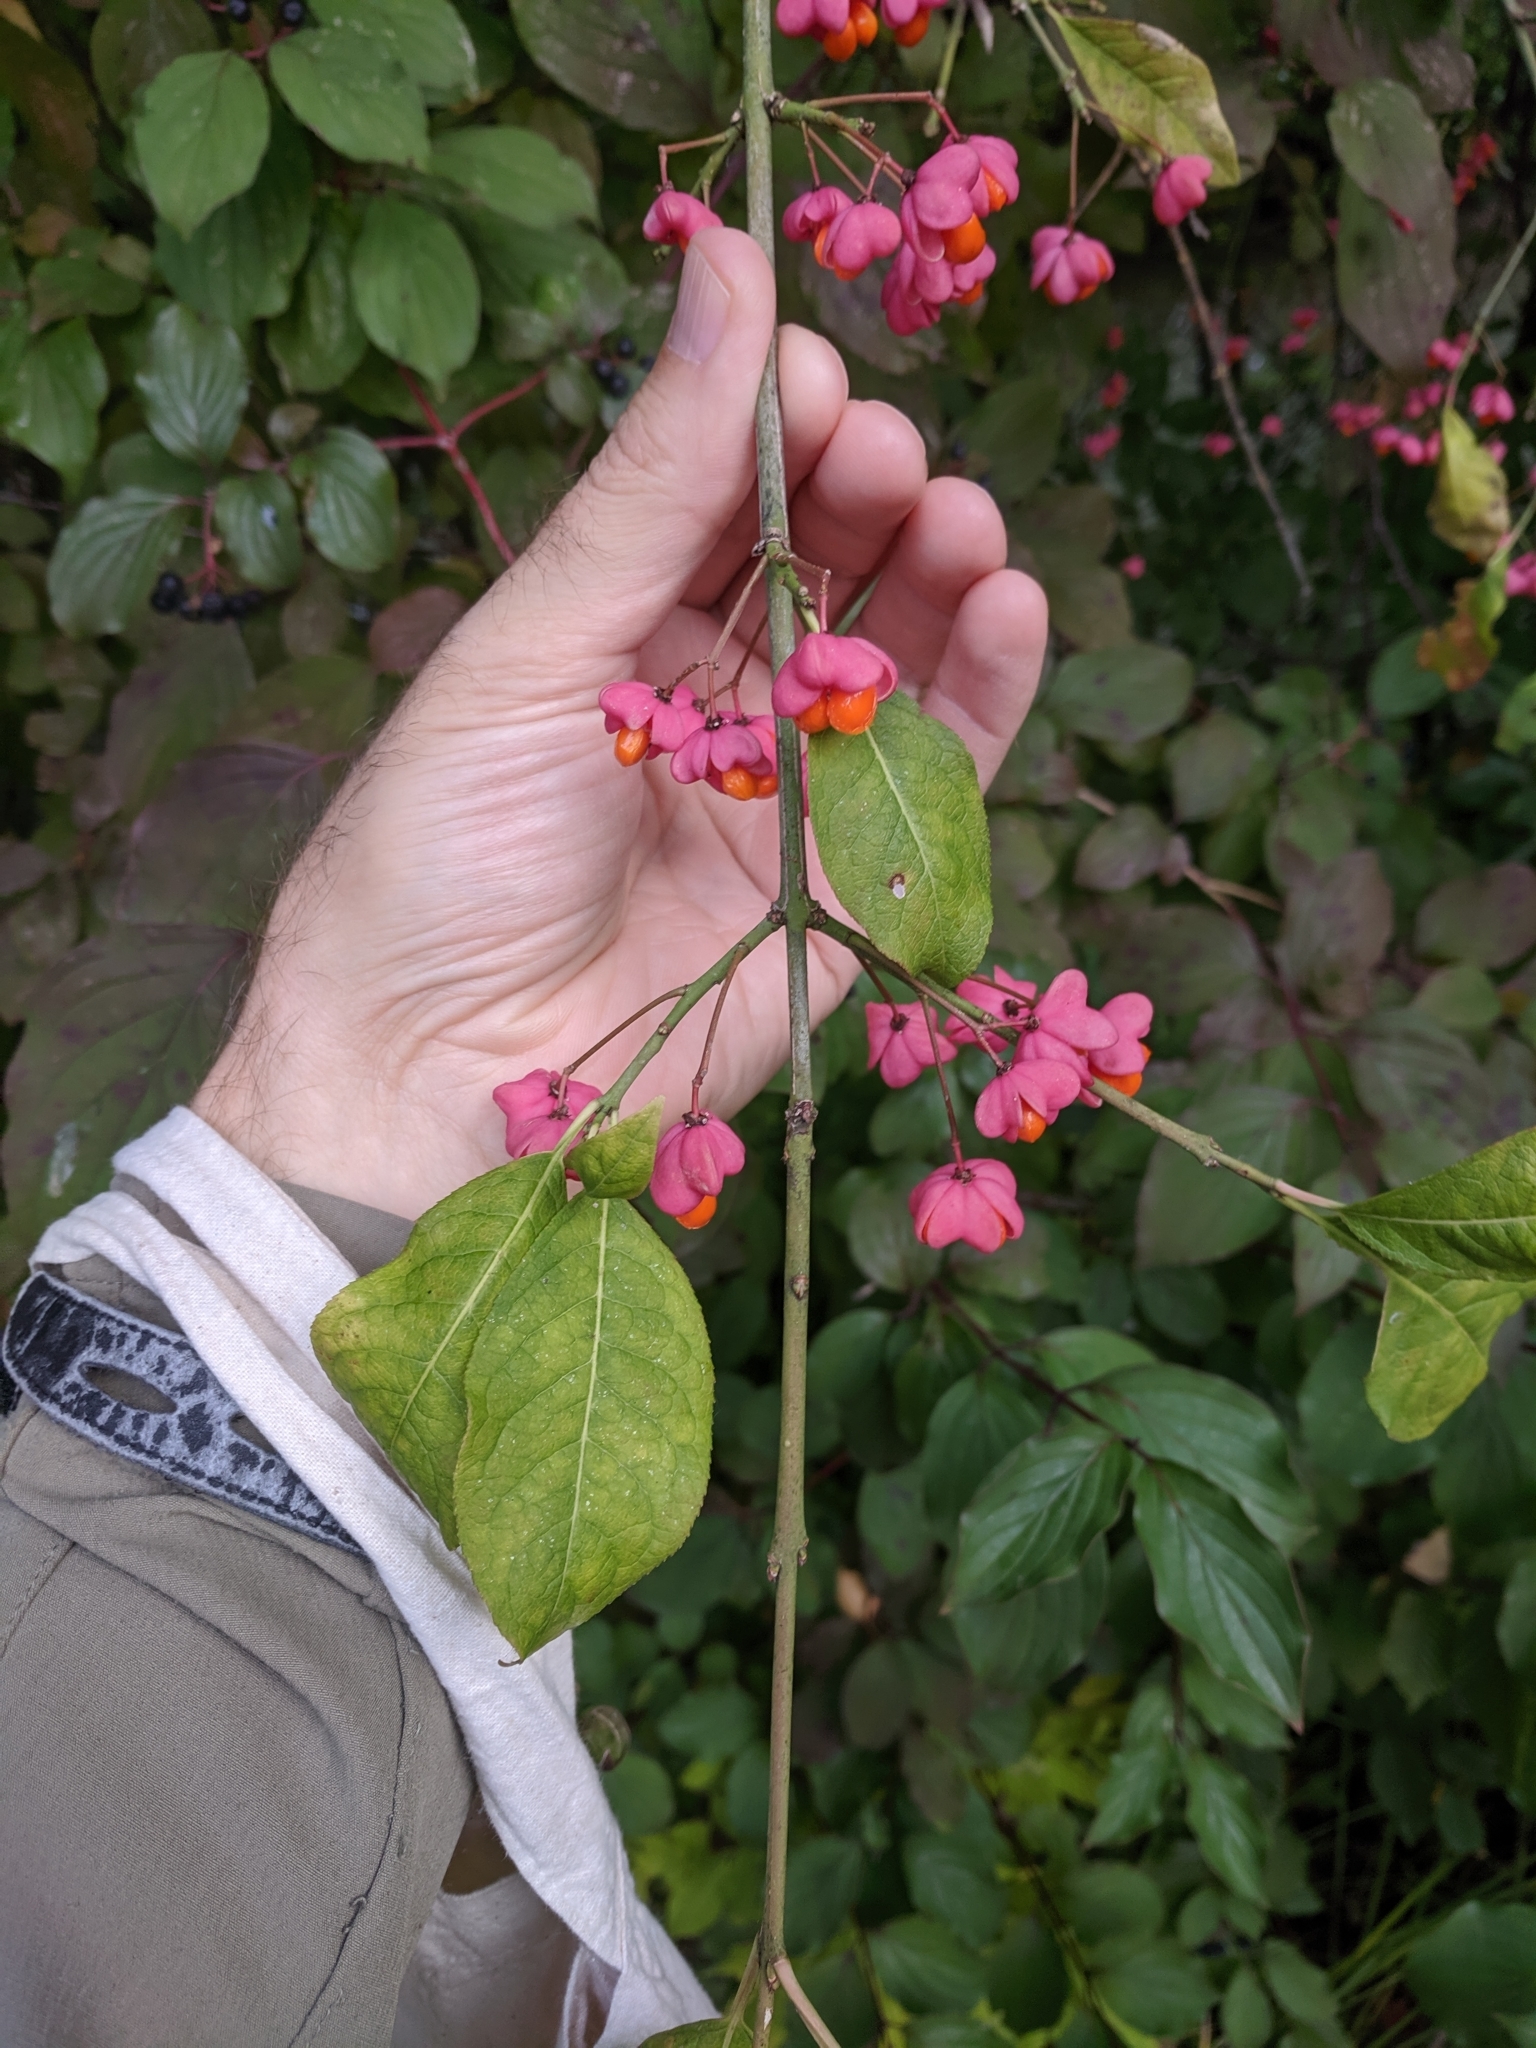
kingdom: Plantae
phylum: Tracheophyta
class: Magnoliopsida
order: Celastrales
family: Celastraceae
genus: Euonymus
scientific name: Euonymus europaeus
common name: Spindle
